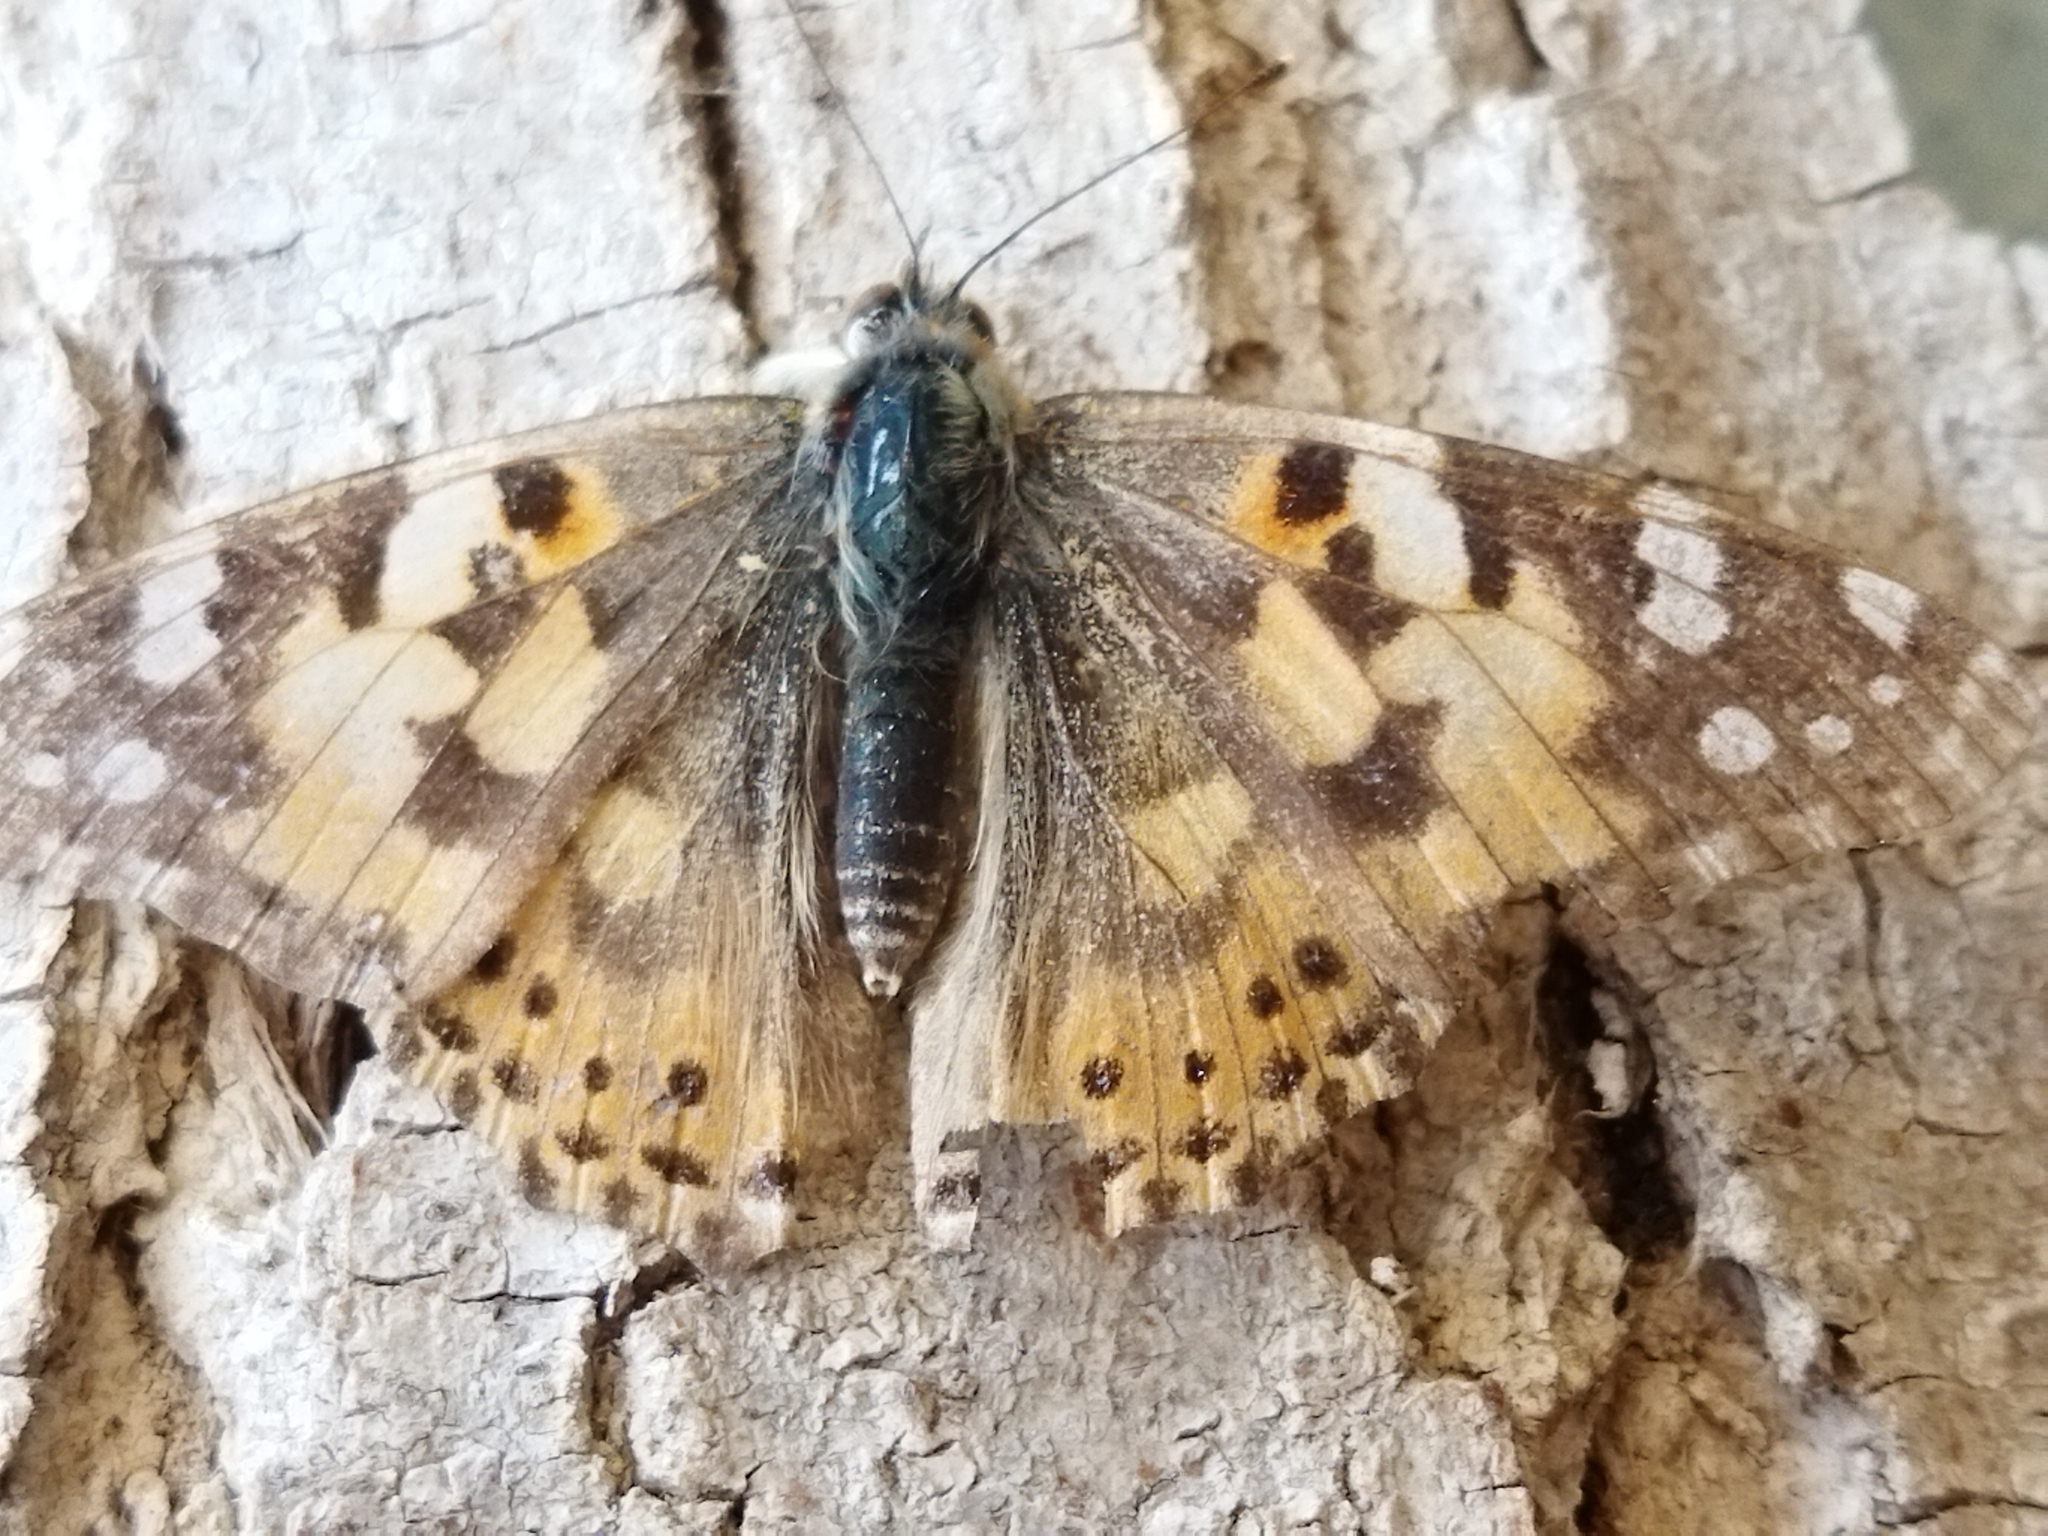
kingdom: Animalia
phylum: Arthropoda
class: Insecta
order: Lepidoptera
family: Nymphalidae
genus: Vanessa
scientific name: Vanessa cardui
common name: Painted lady
